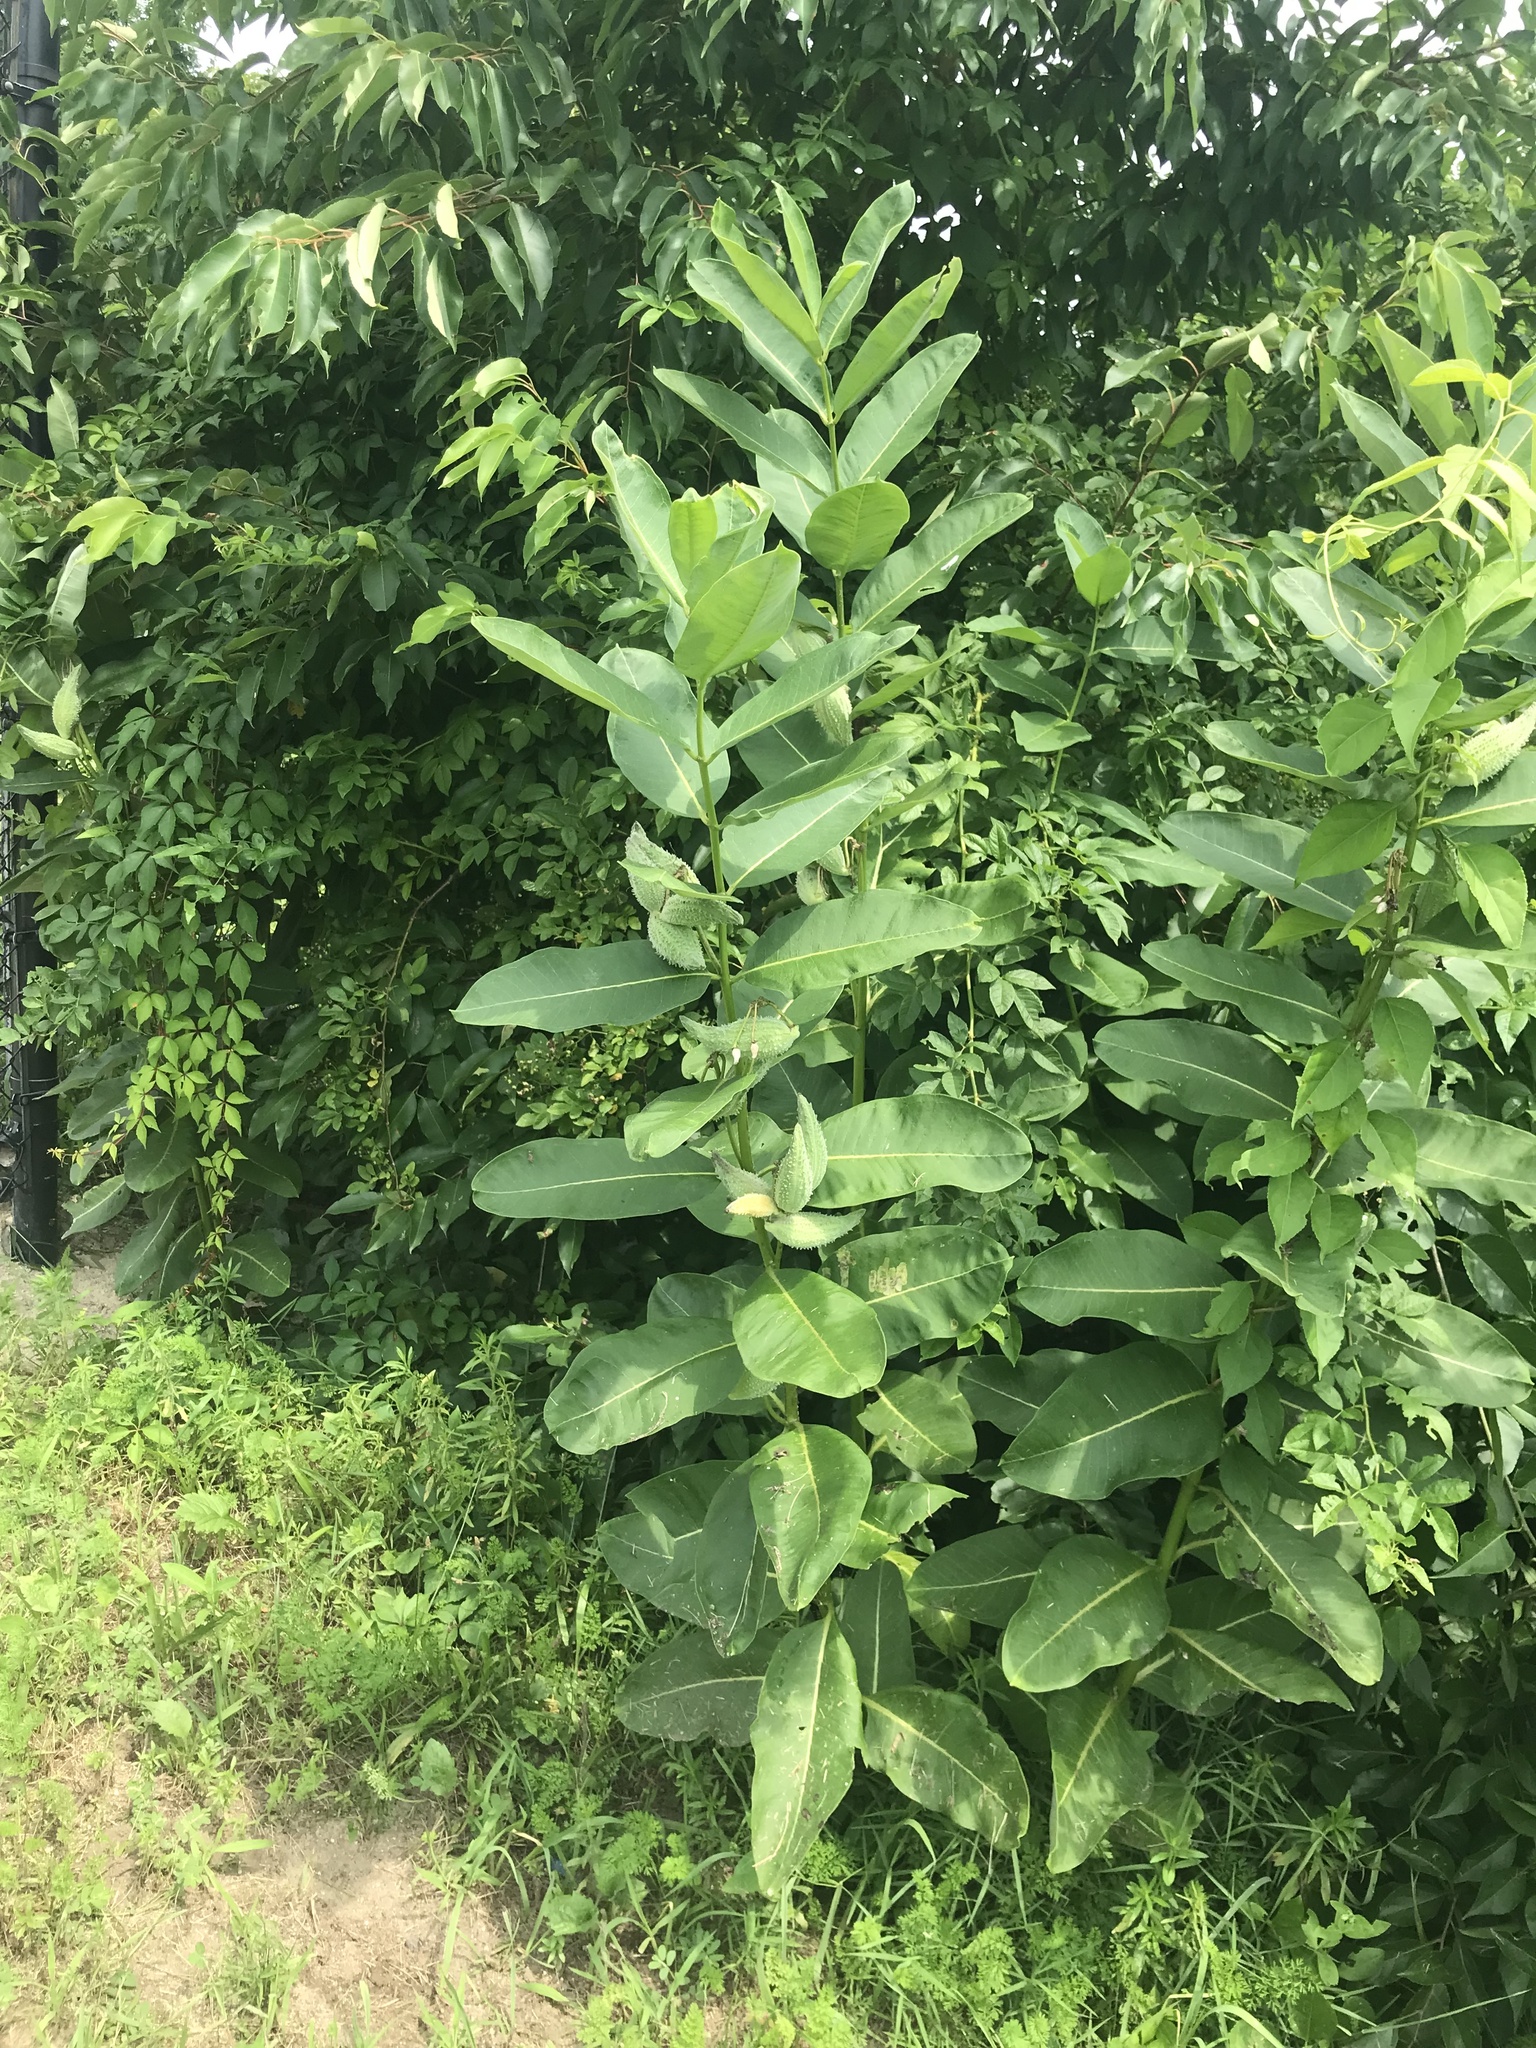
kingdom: Plantae
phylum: Tracheophyta
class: Magnoliopsida
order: Gentianales
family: Apocynaceae
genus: Asclepias
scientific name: Asclepias syriaca
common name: Common milkweed
